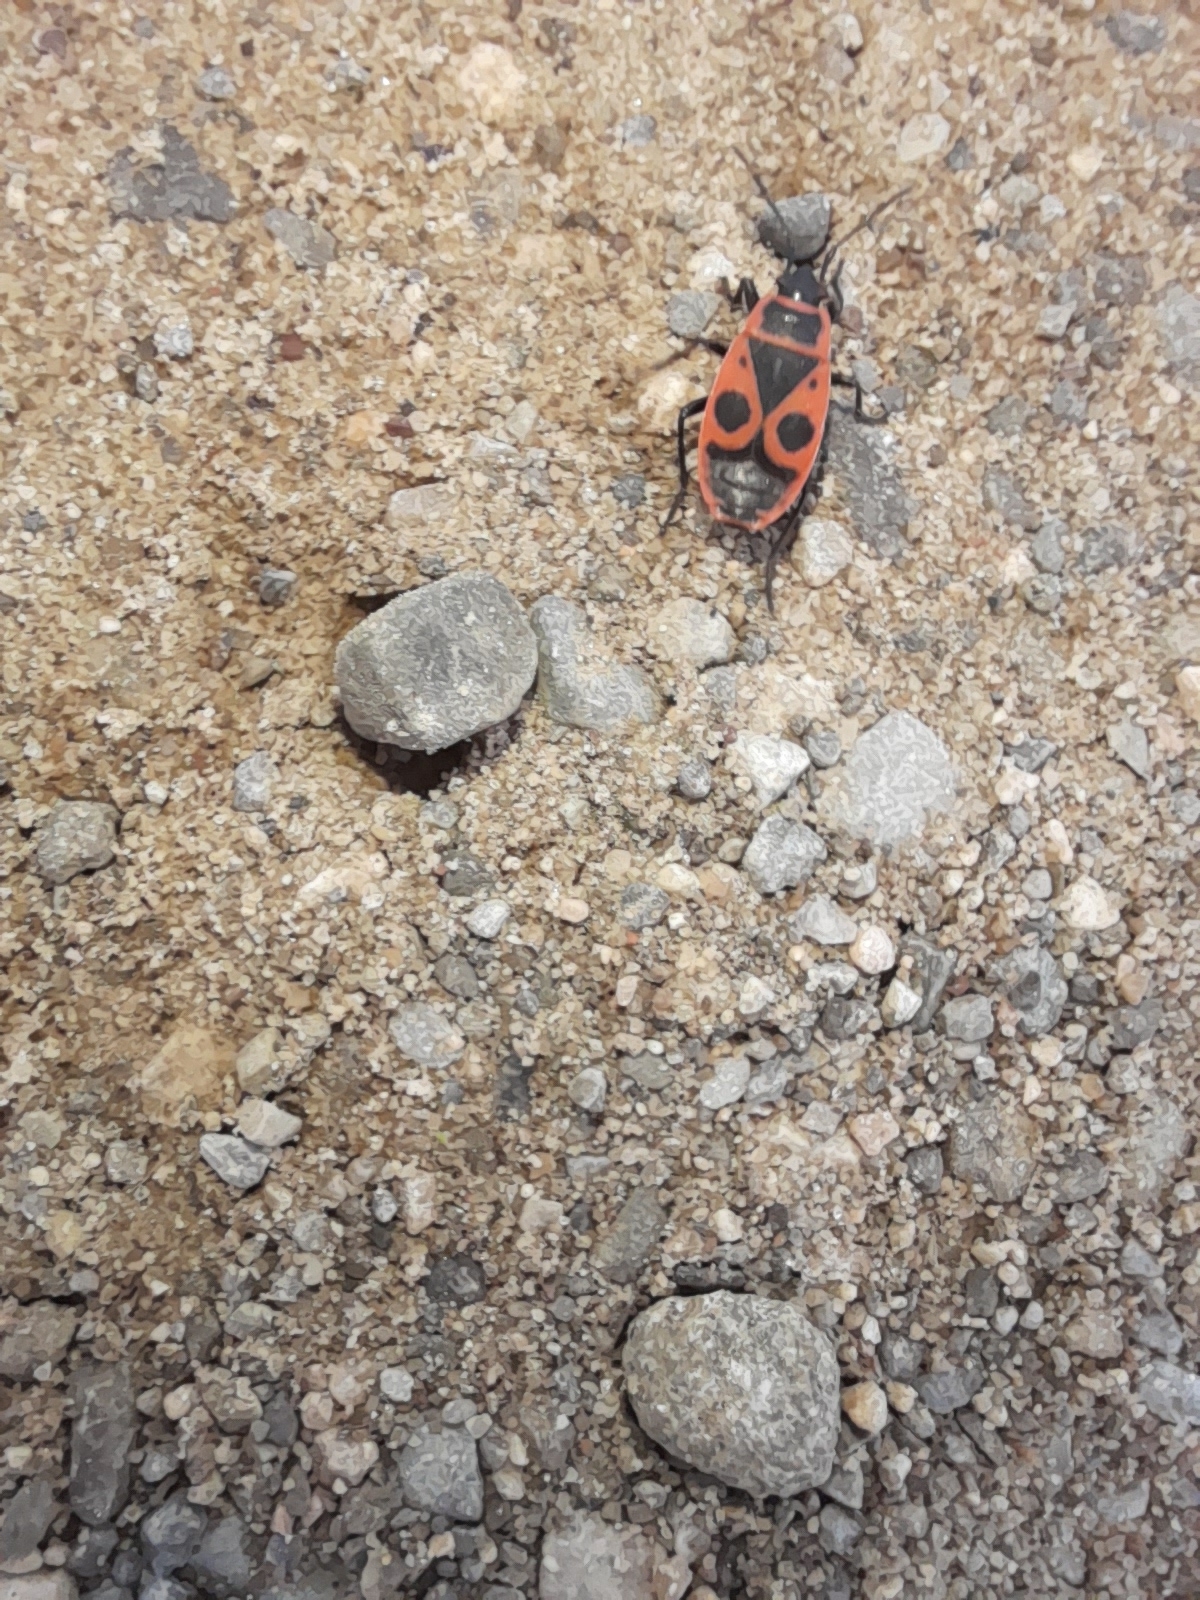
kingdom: Animalia
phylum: Arthropoda
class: Insecta
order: Hemiptera
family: Pyrrhocoridae
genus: Pyrrhocoris
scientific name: Pyrrhocoris apterus
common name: Firebug
